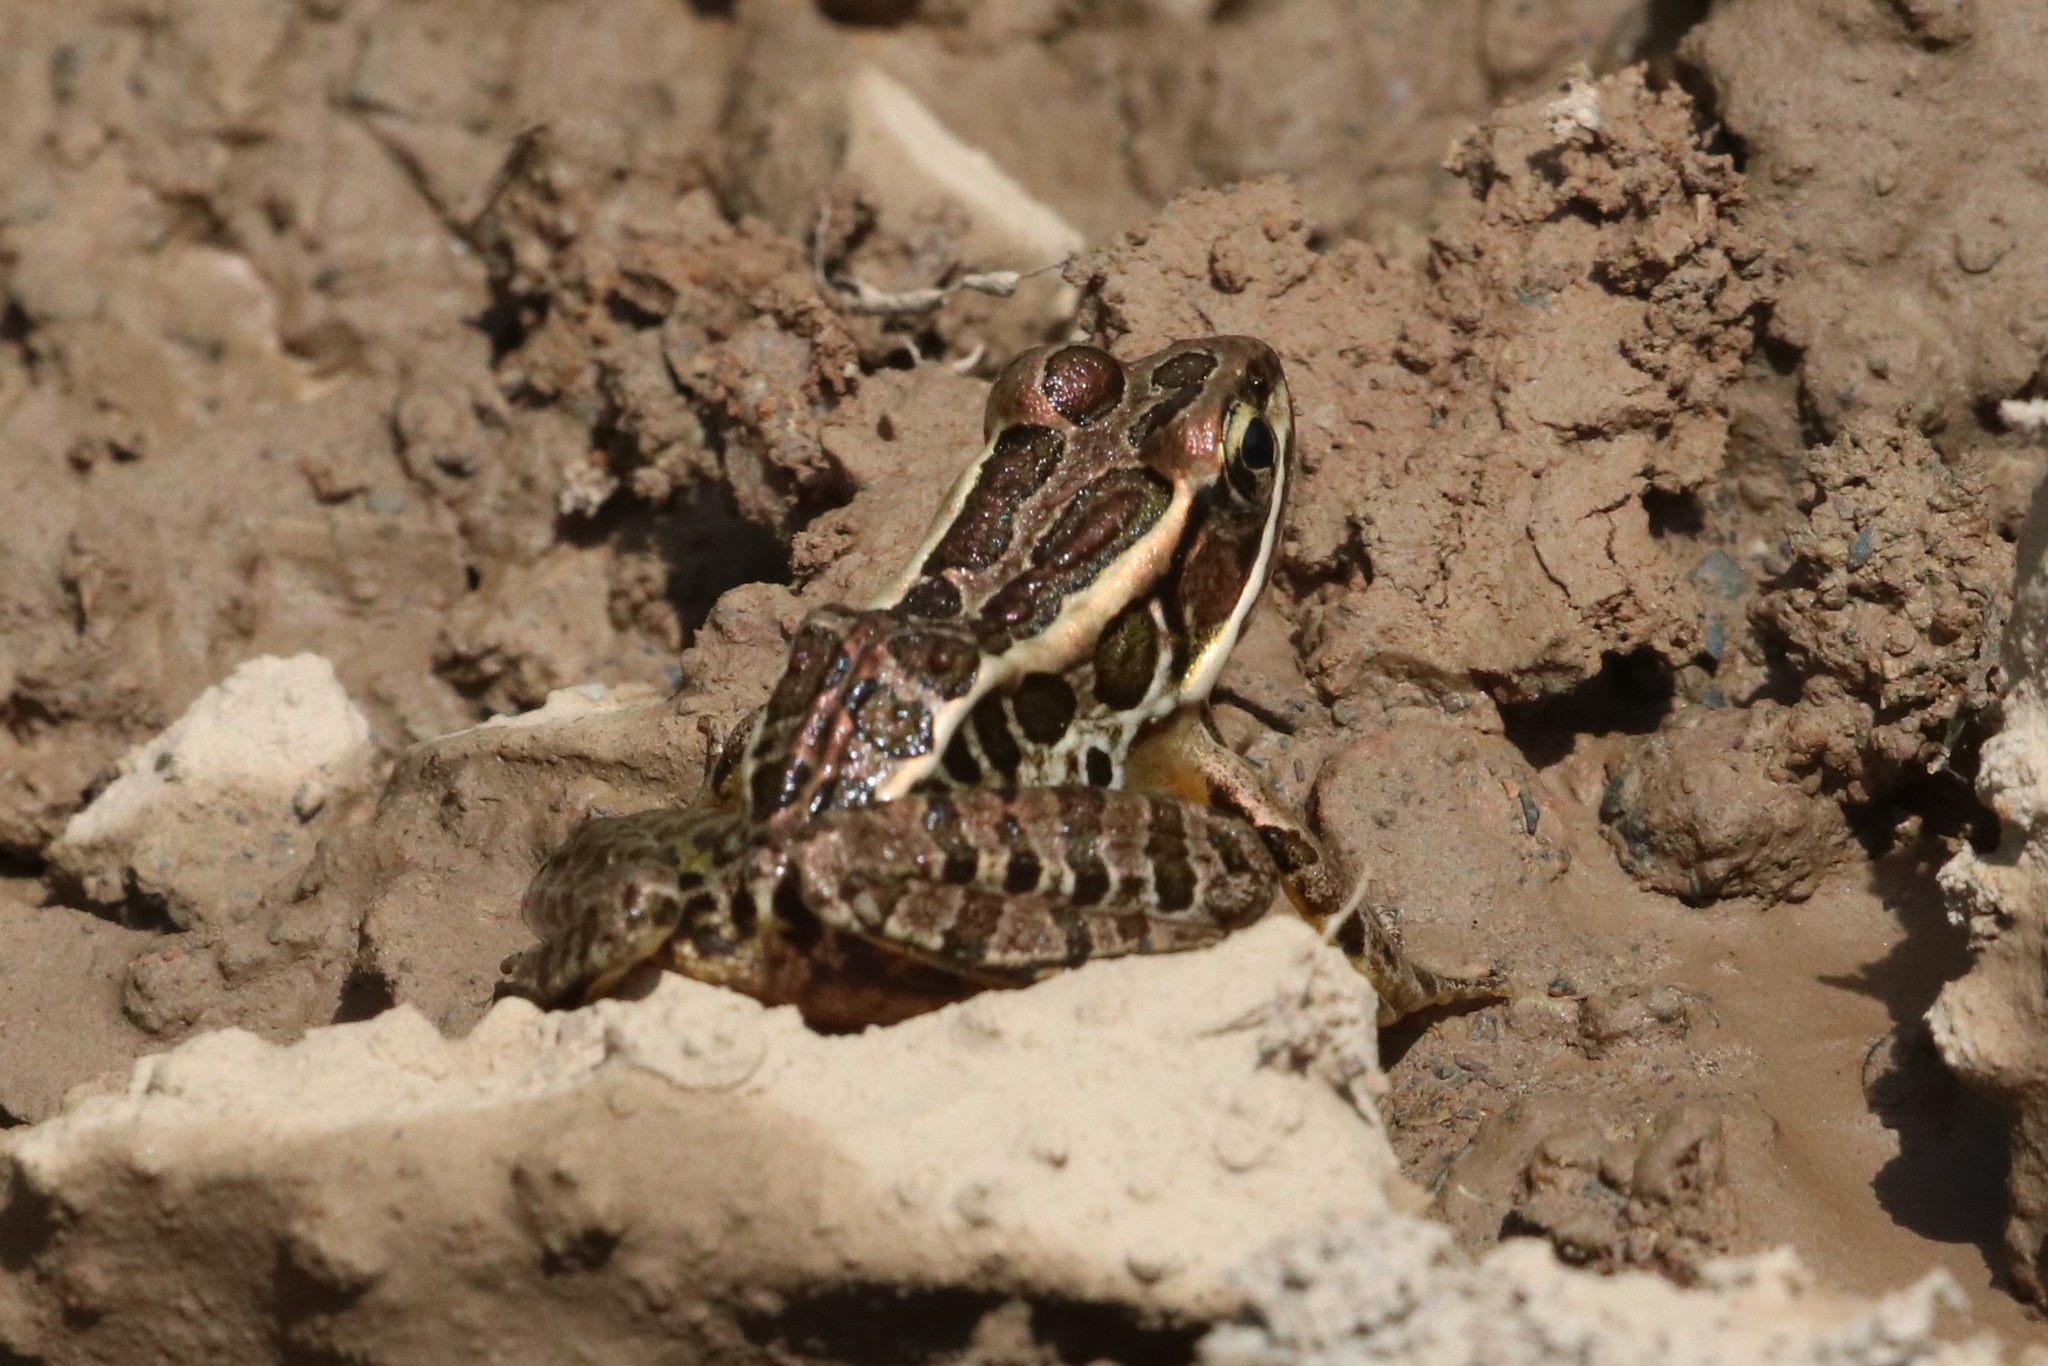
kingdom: Animalia
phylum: Chordata
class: Amphibia
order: Anura
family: Ranidae
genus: Lithobates
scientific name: Lithobates palustris
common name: Pickerel frog
